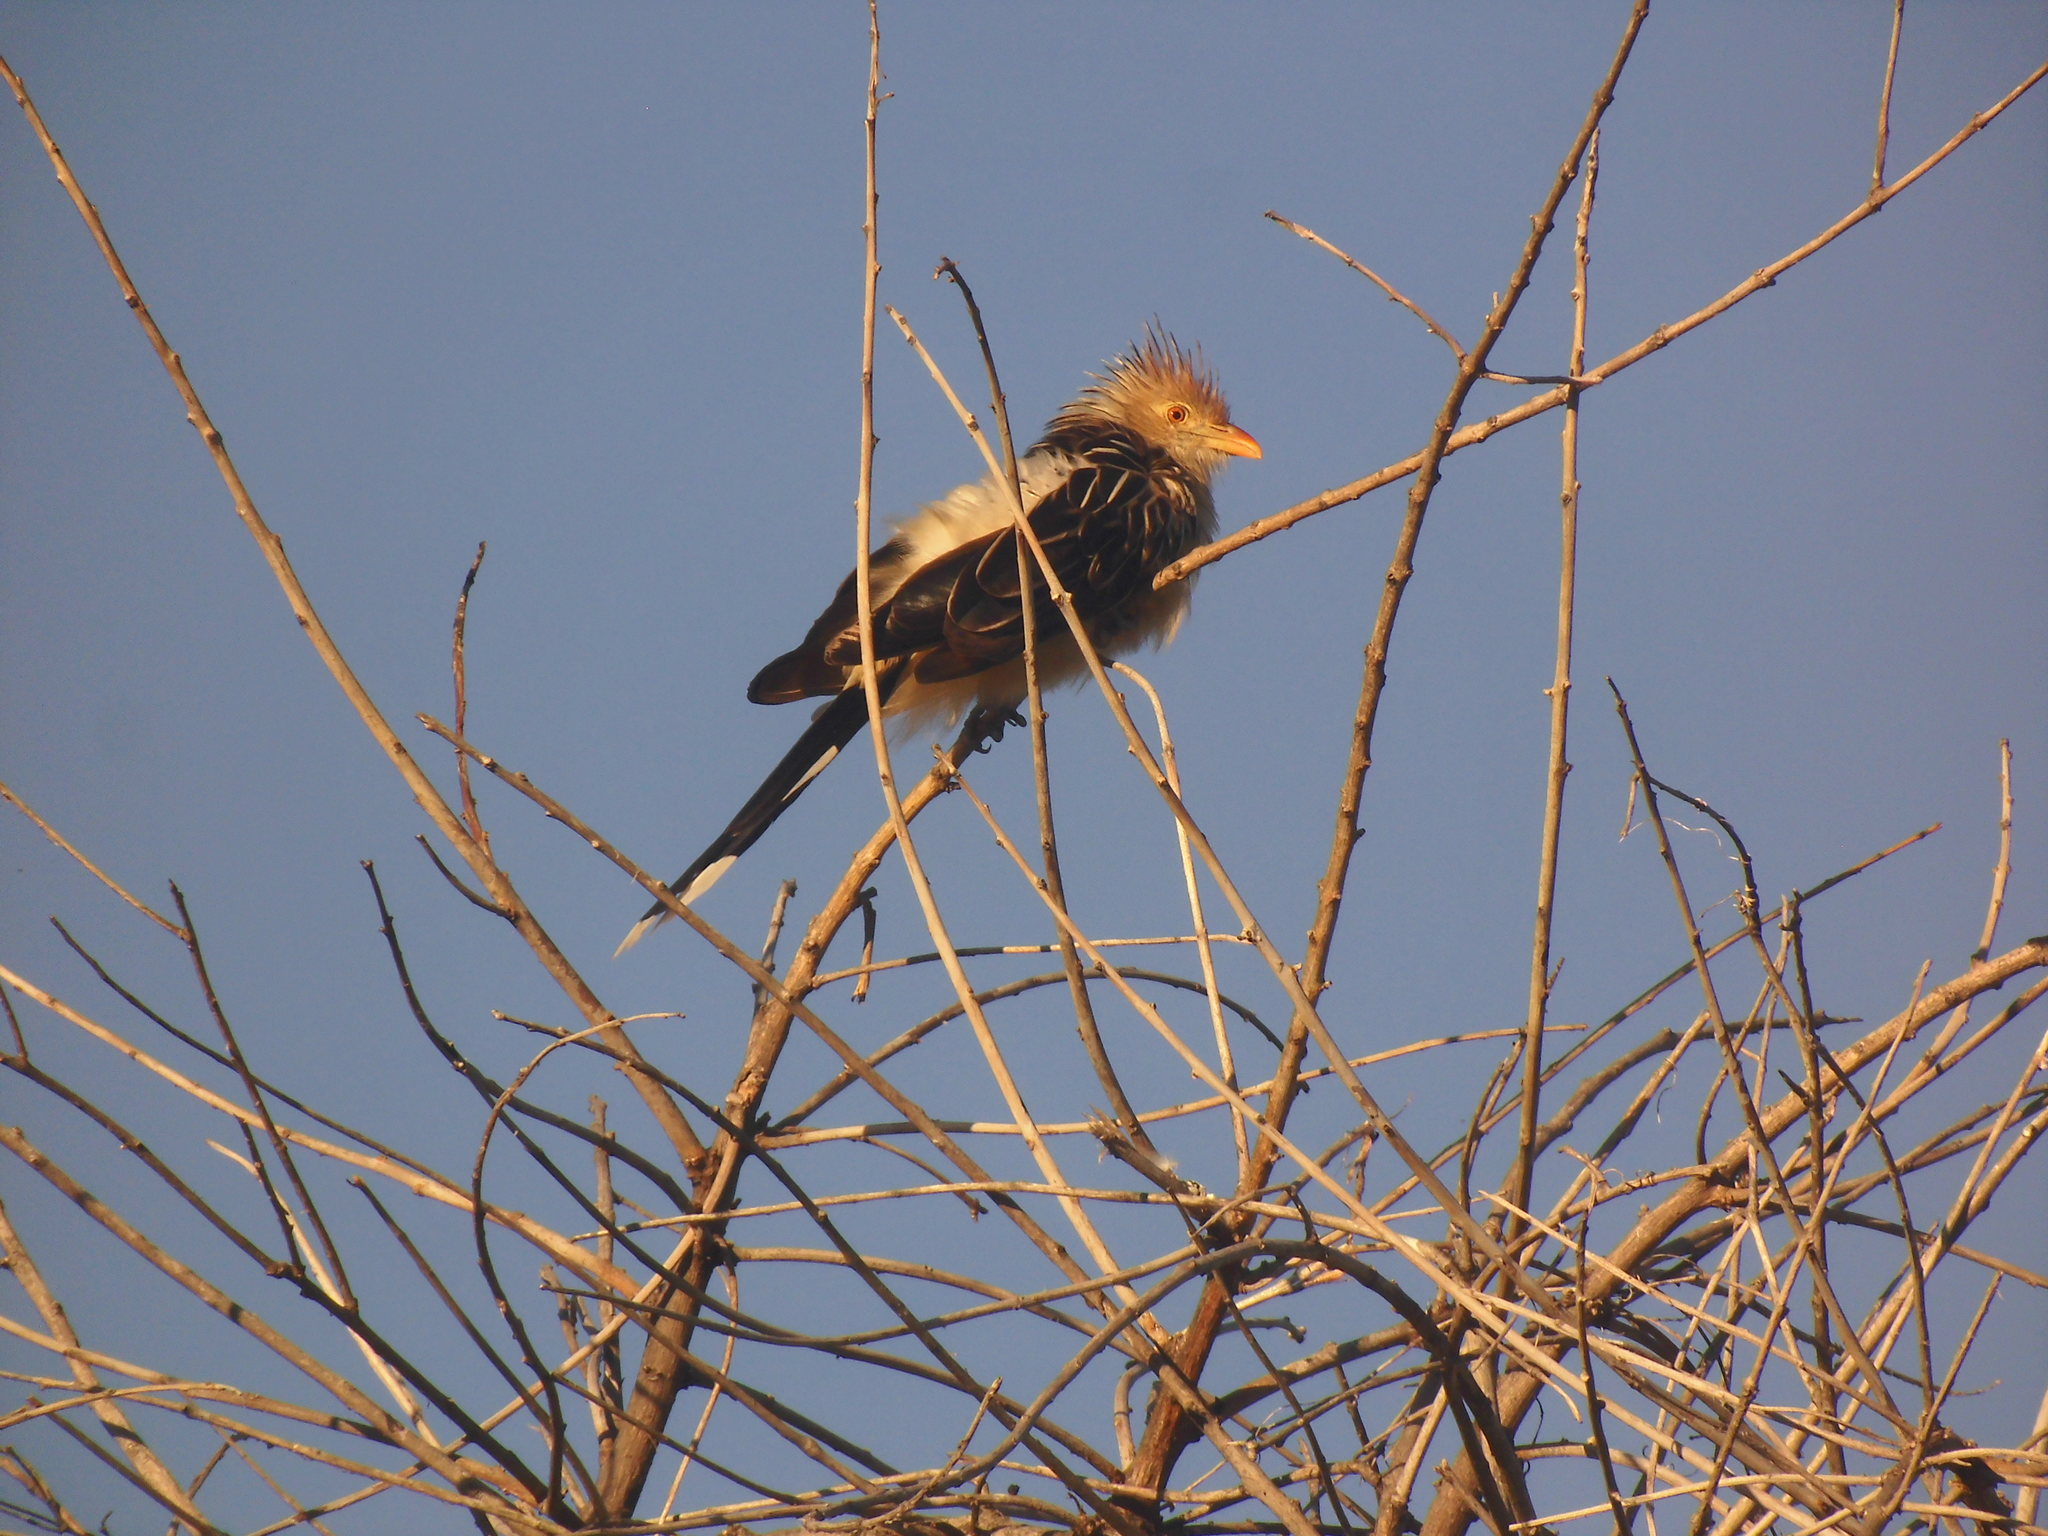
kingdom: Animalia
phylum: Chordata
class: Aves
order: Cuculiformes
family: Cuculidae
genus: Guira
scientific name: Guira guira
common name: Guira cuckoo
